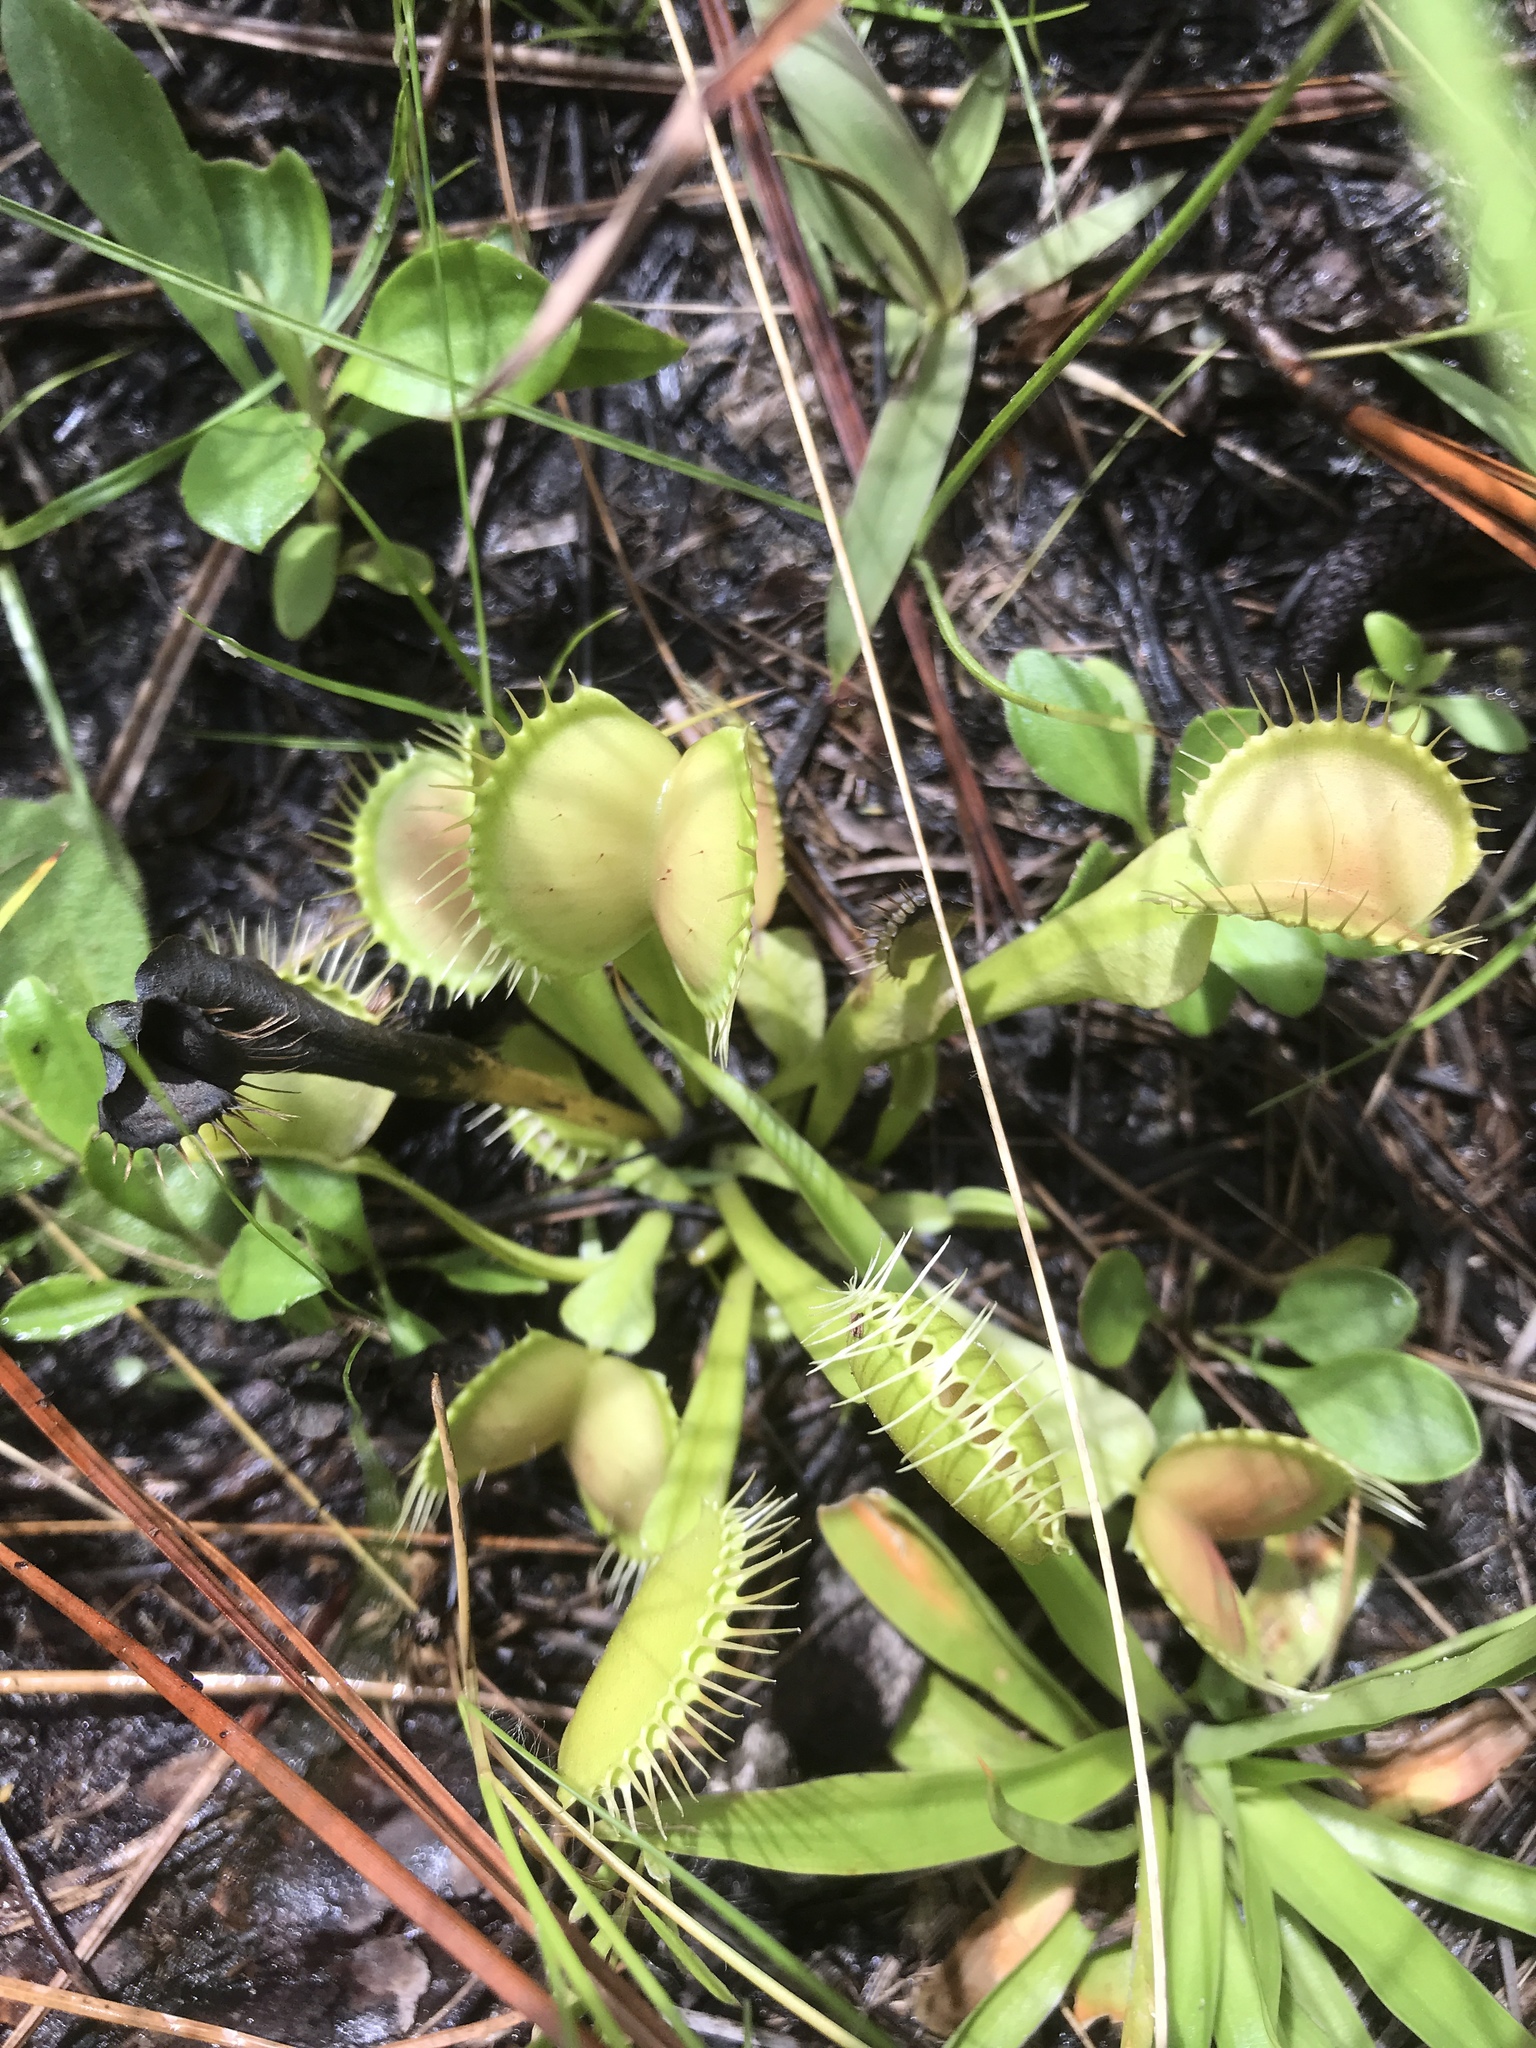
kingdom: Plantae
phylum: Tracheophyta
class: Magnoliopsida
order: Caryophyllales
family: Droseraceae
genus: Dionaea
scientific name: Dionaea muscipula
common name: Venus flytrap
